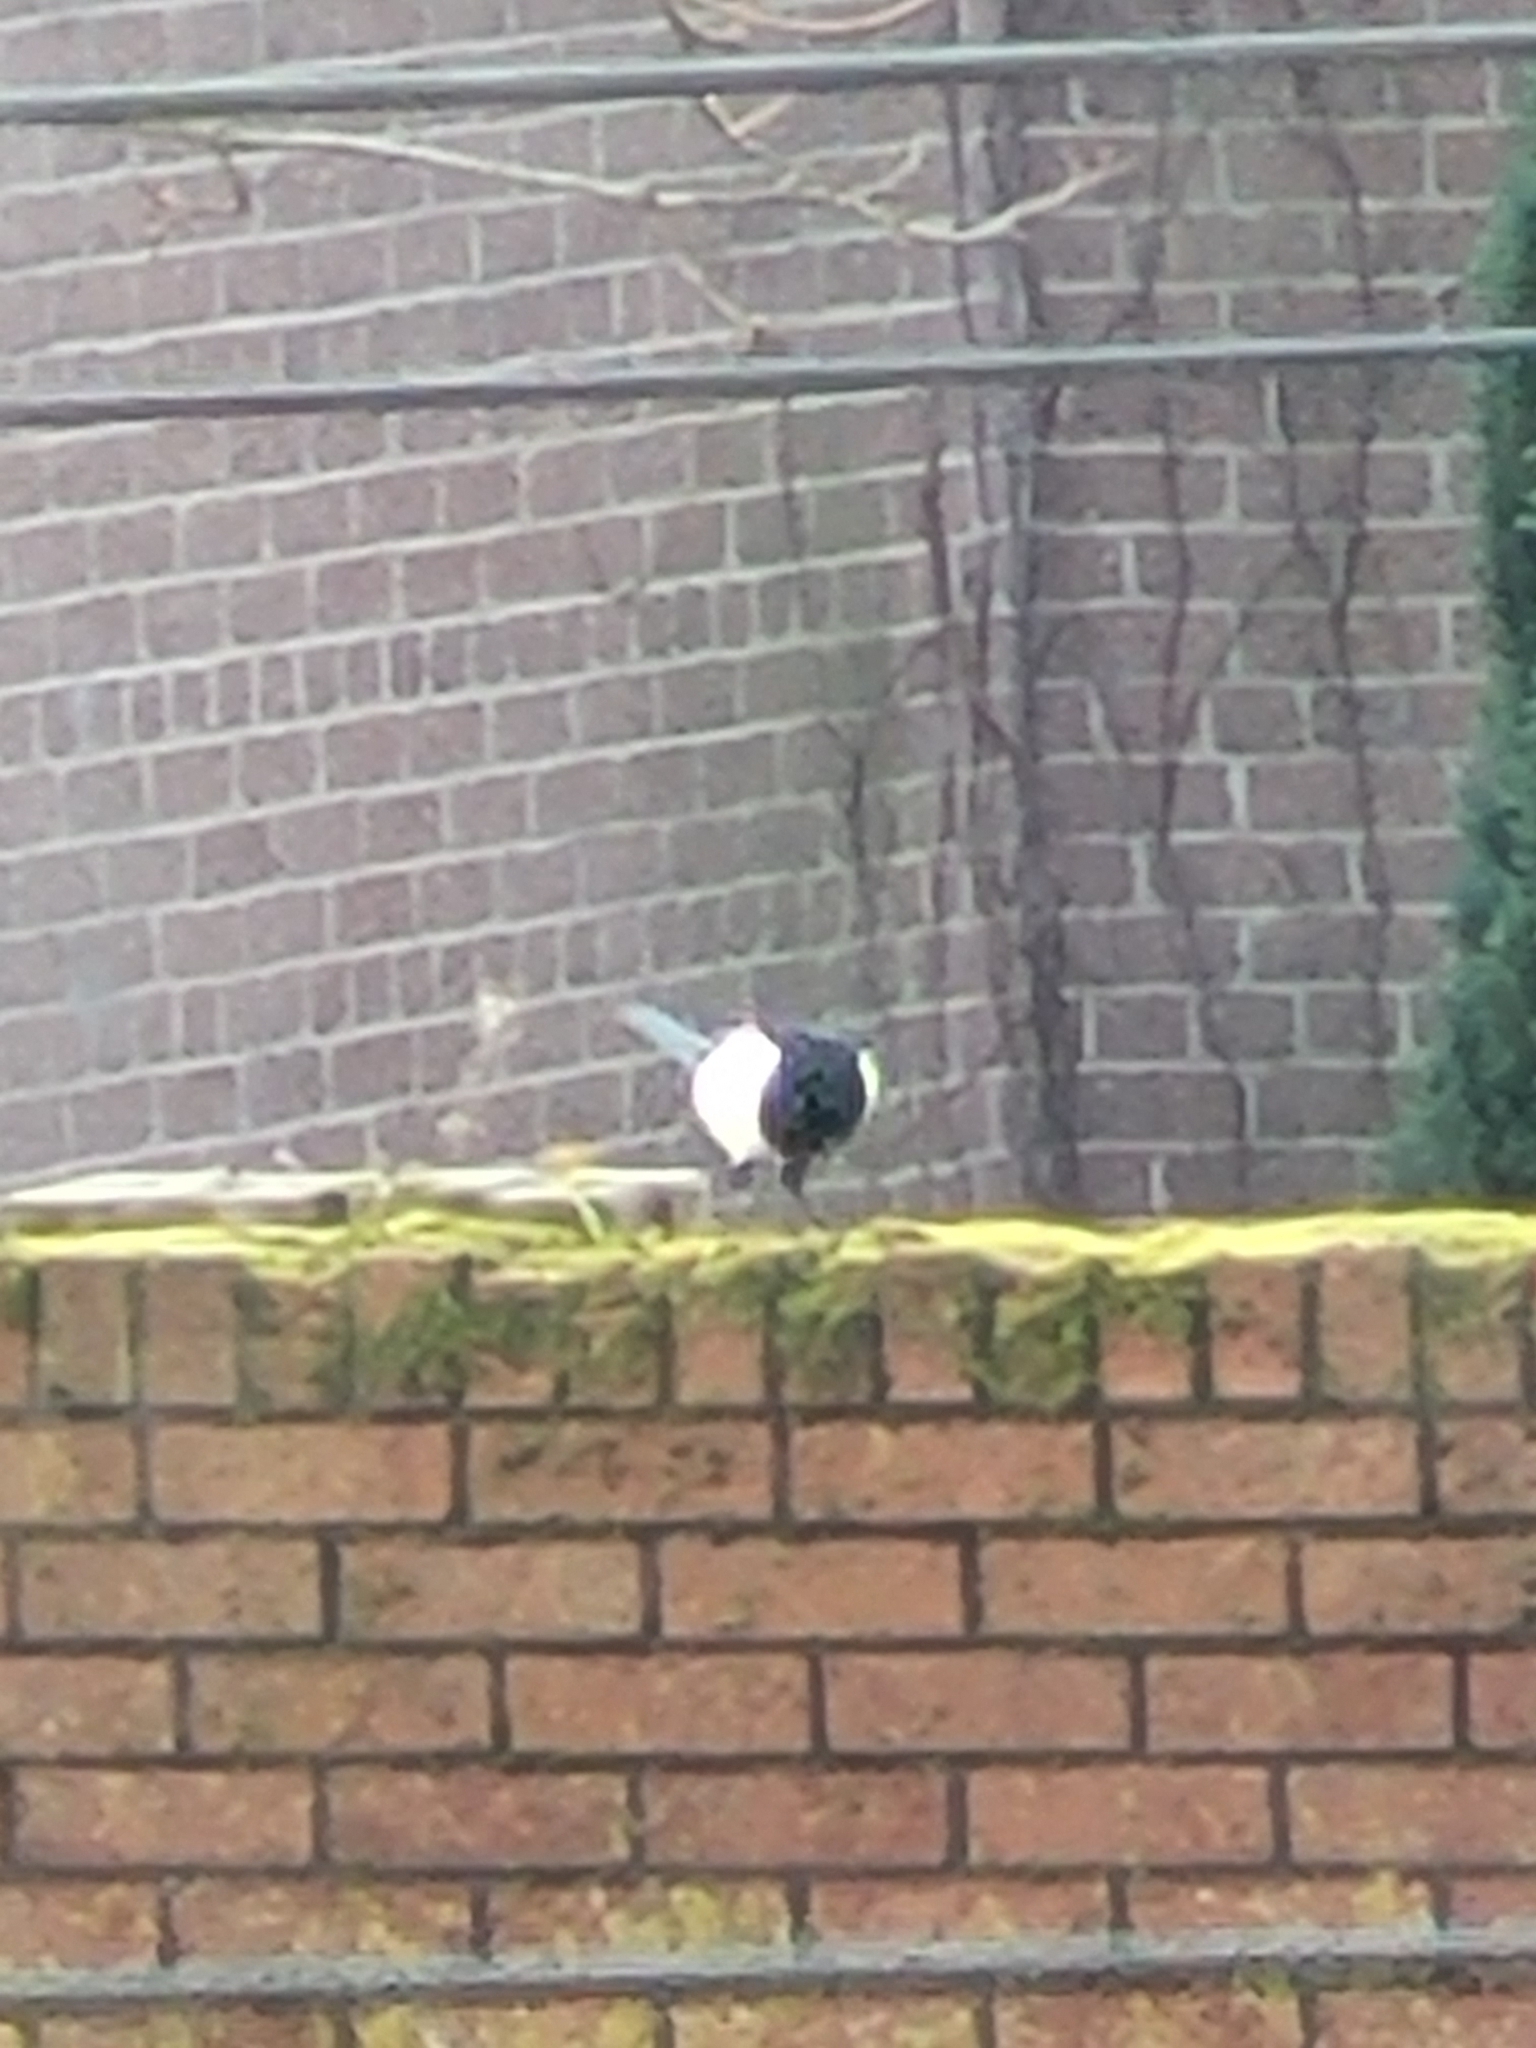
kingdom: Animalia
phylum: Chordata
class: Aves
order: Passeriformes
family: Corvidae
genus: Pica
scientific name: Pica pica
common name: Eurasian magpie
